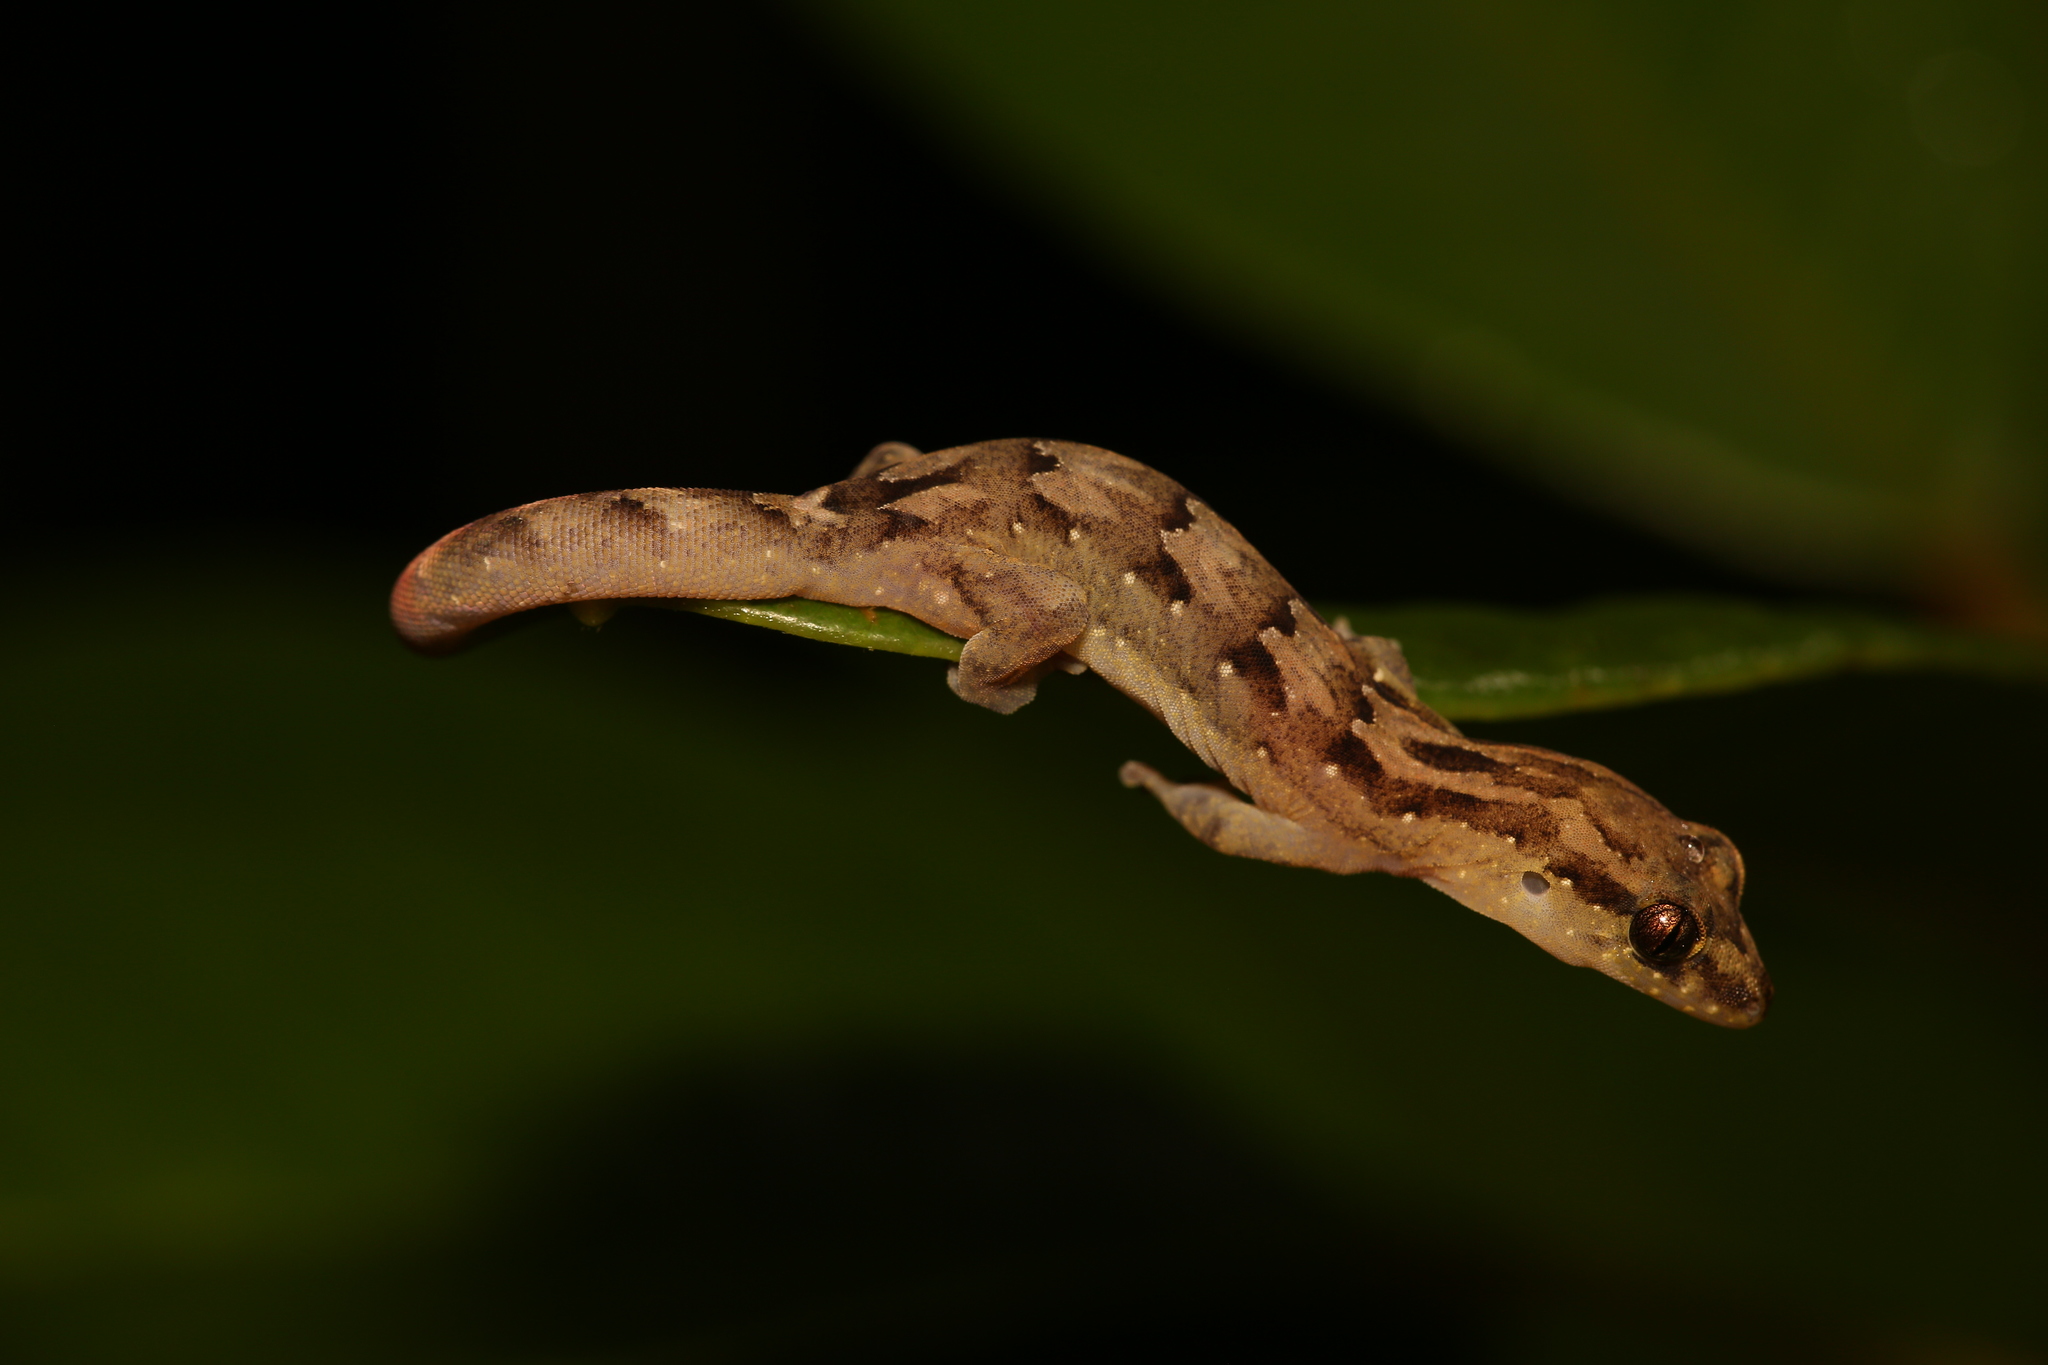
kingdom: Animalia
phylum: Chordata
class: Squamata
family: Diplodactylidae
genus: Bavayia
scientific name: Bavayia sauvagii
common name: Sauvage's new caledonian gecko
